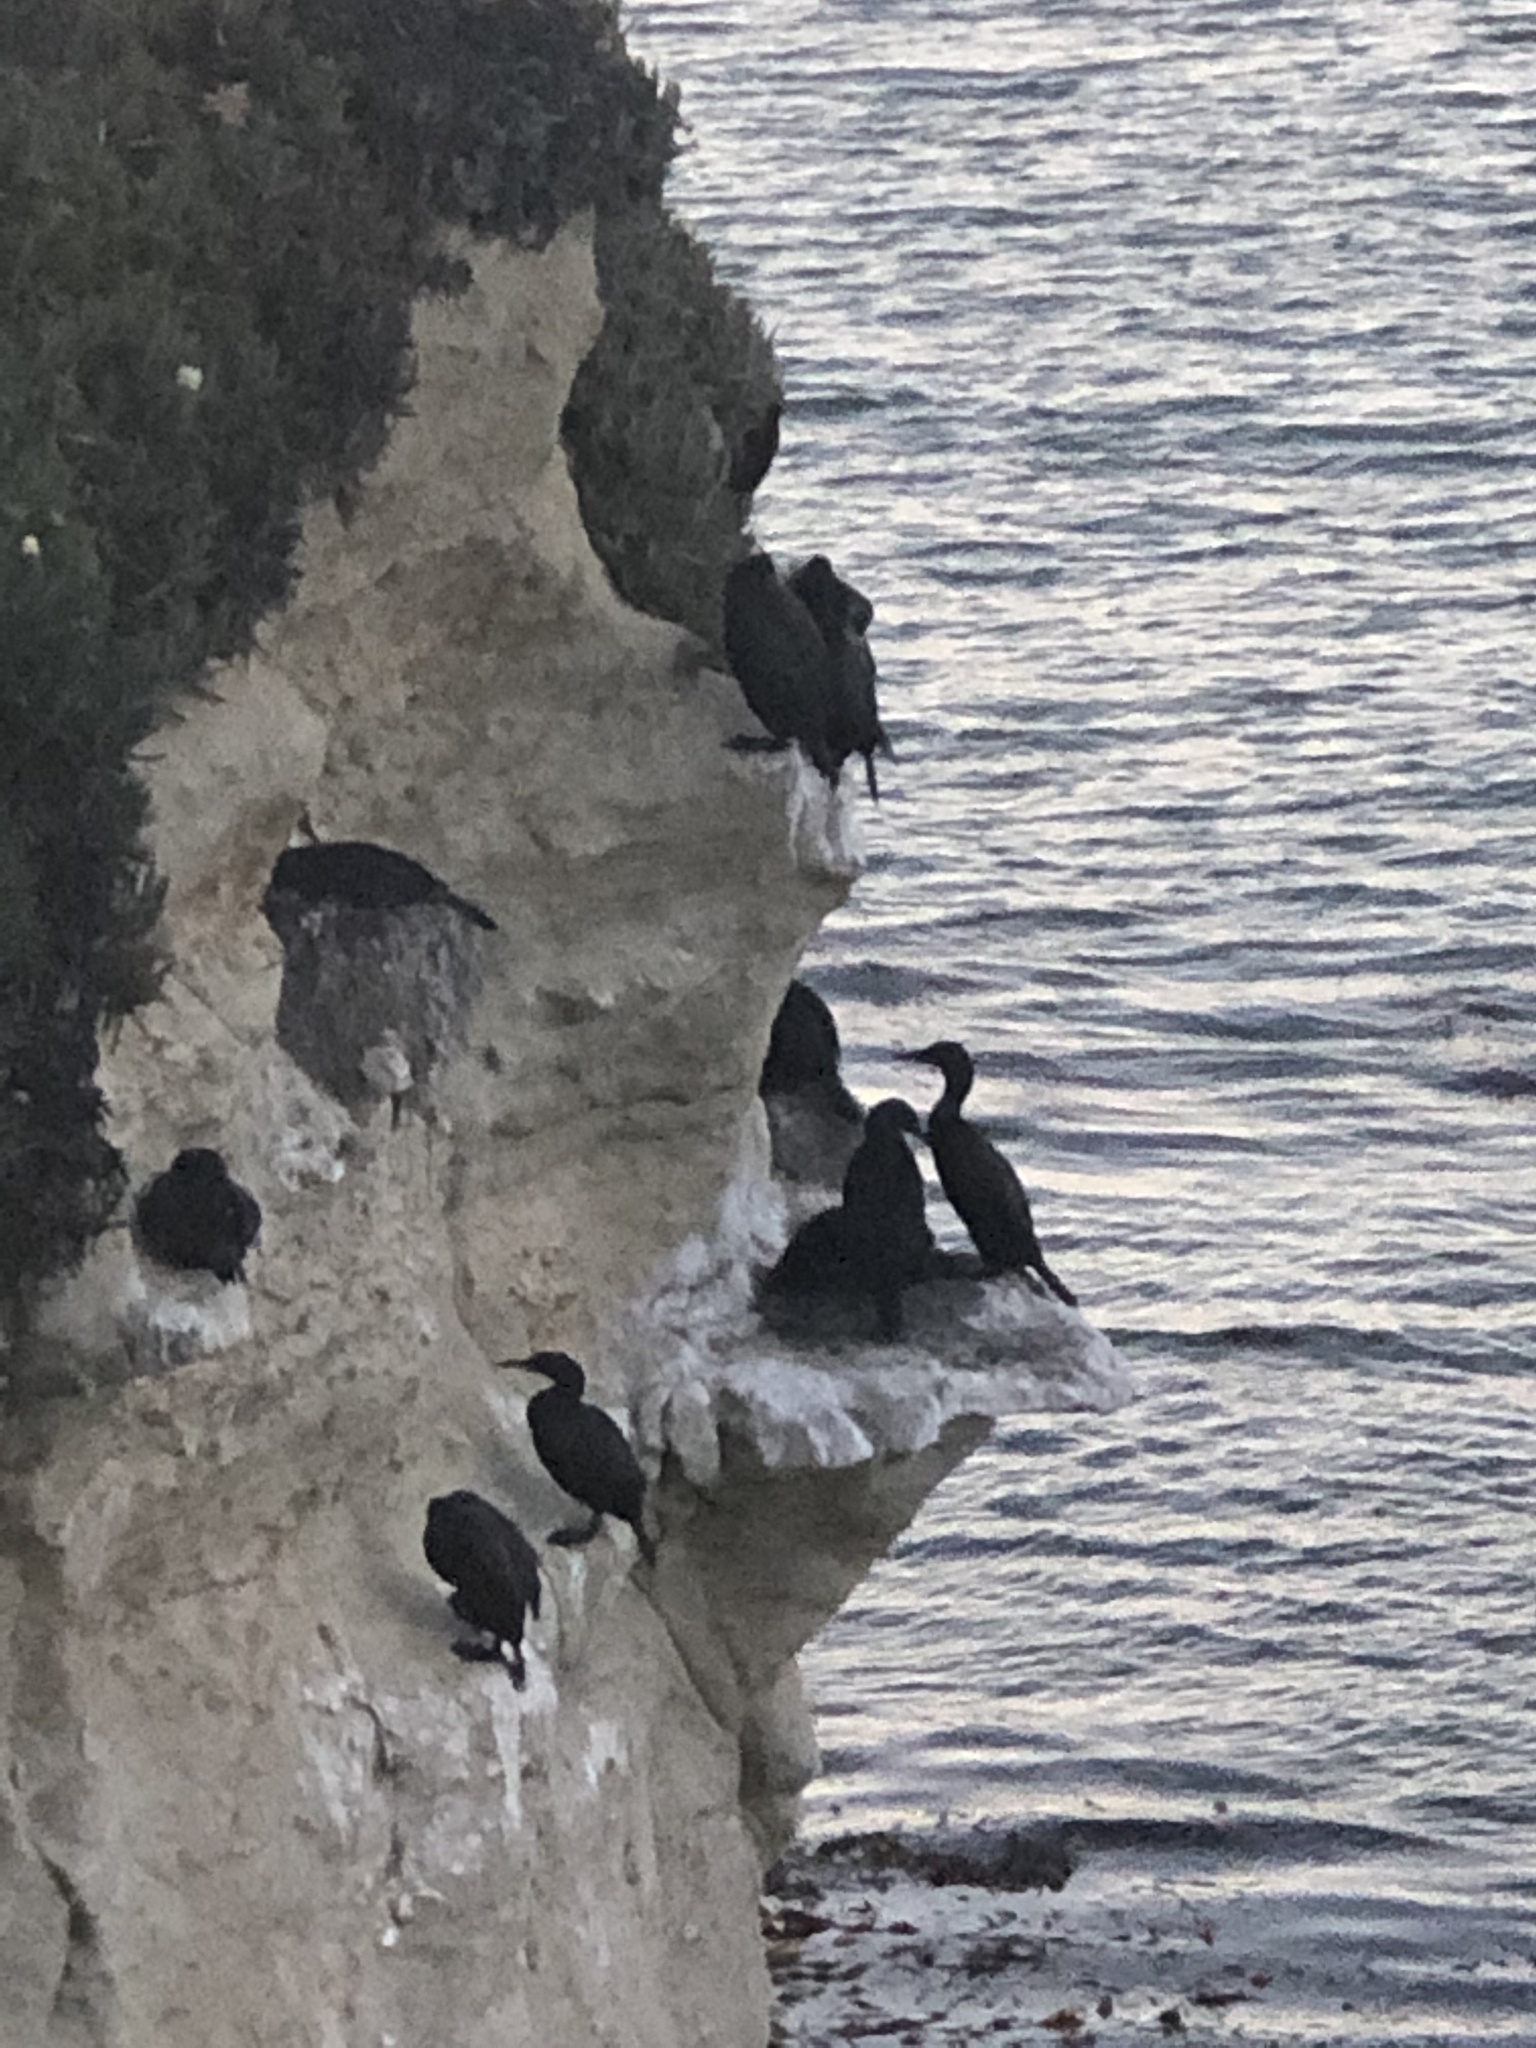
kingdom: Animalia
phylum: Chordata
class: Aves
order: Suliformes
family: Phalacrocoracidae
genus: Urile
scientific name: Urile penicillatus
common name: Brandt's cormorant
